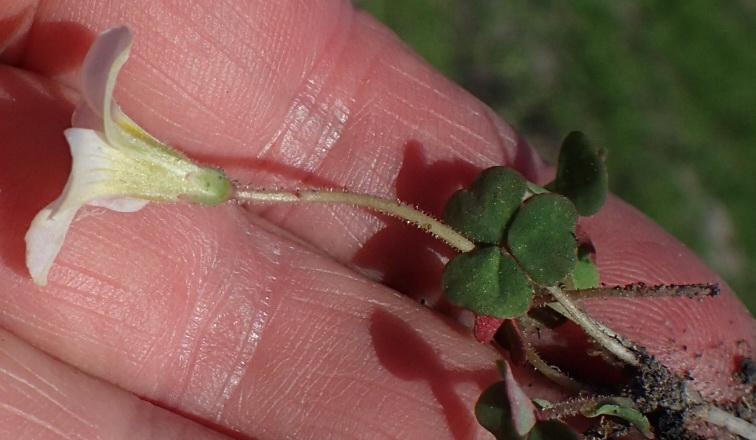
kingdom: Plantae
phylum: Tracheophyta
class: Magnoliopsida
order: Oxalidales
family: Oxalidaceae
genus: Oxalis
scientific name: Oxalis punctata
